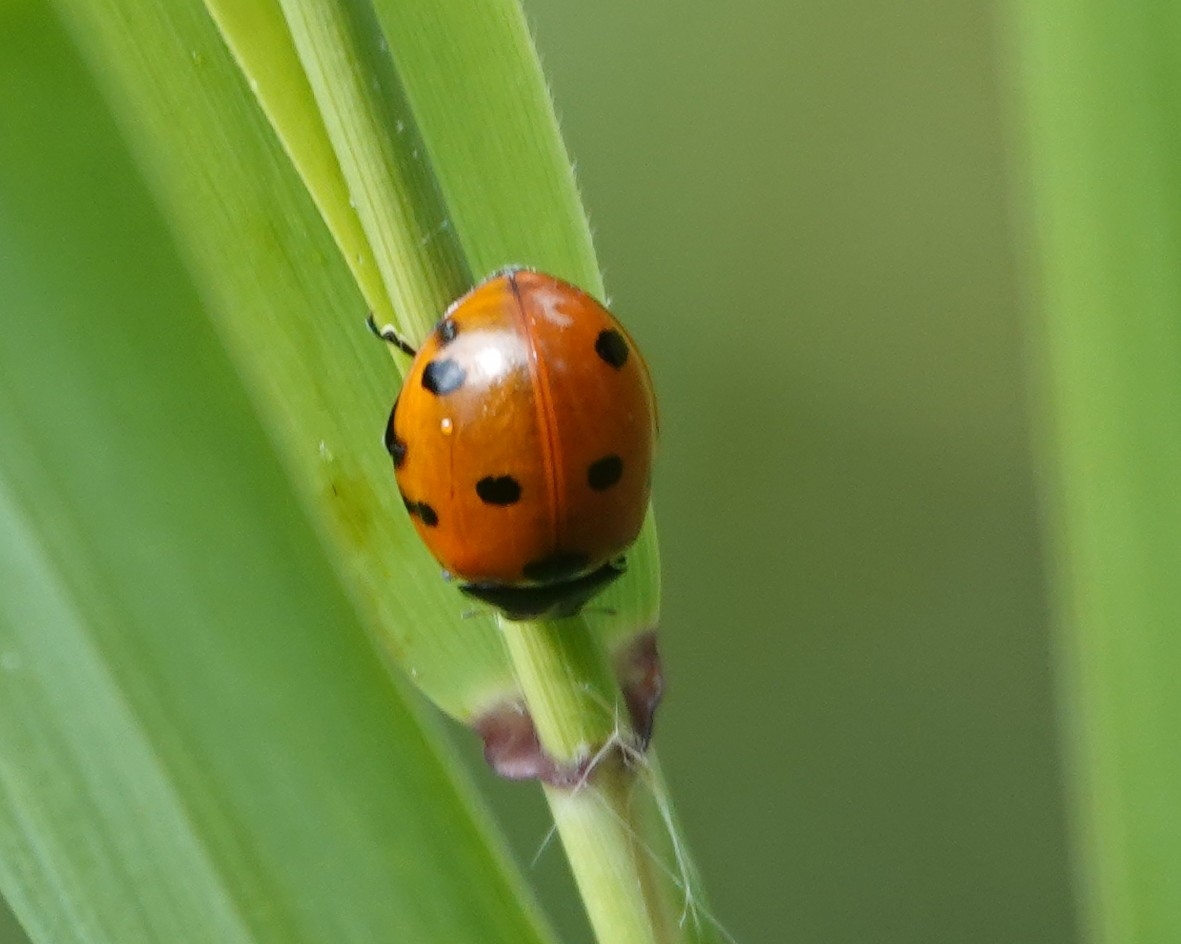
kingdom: Animalia
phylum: Arthropoda
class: Insecta
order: Coleoptera
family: Coccinellidae
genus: Coccinella
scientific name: Coccinella septempunctata
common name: Sevenspotted lady beetle
